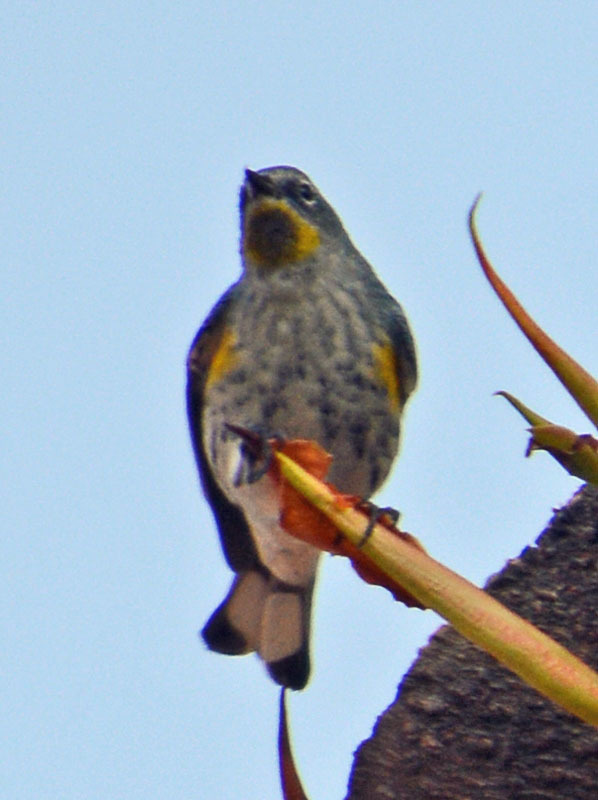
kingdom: Animalia
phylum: Chordata
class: Aves
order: Passeriformes
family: Parulidae
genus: Setophaga
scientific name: Setophaga auduboni
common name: Audubon's warbler
